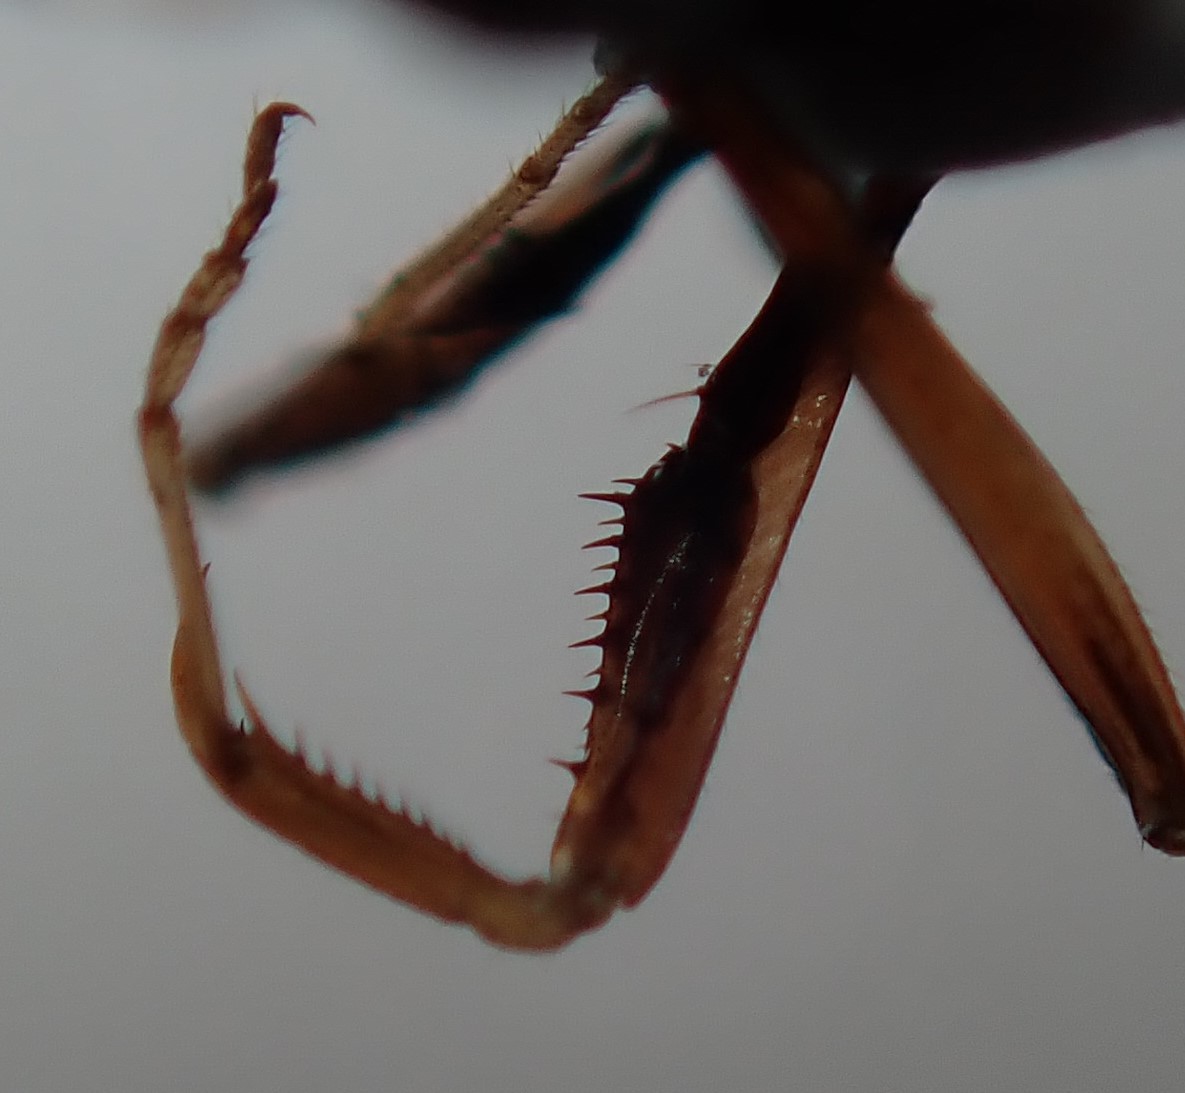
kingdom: Animalia
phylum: Arthropoda
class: Insecta
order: Mantodea
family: Mantidae
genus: Archimantis
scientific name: Archimantis latistyla
